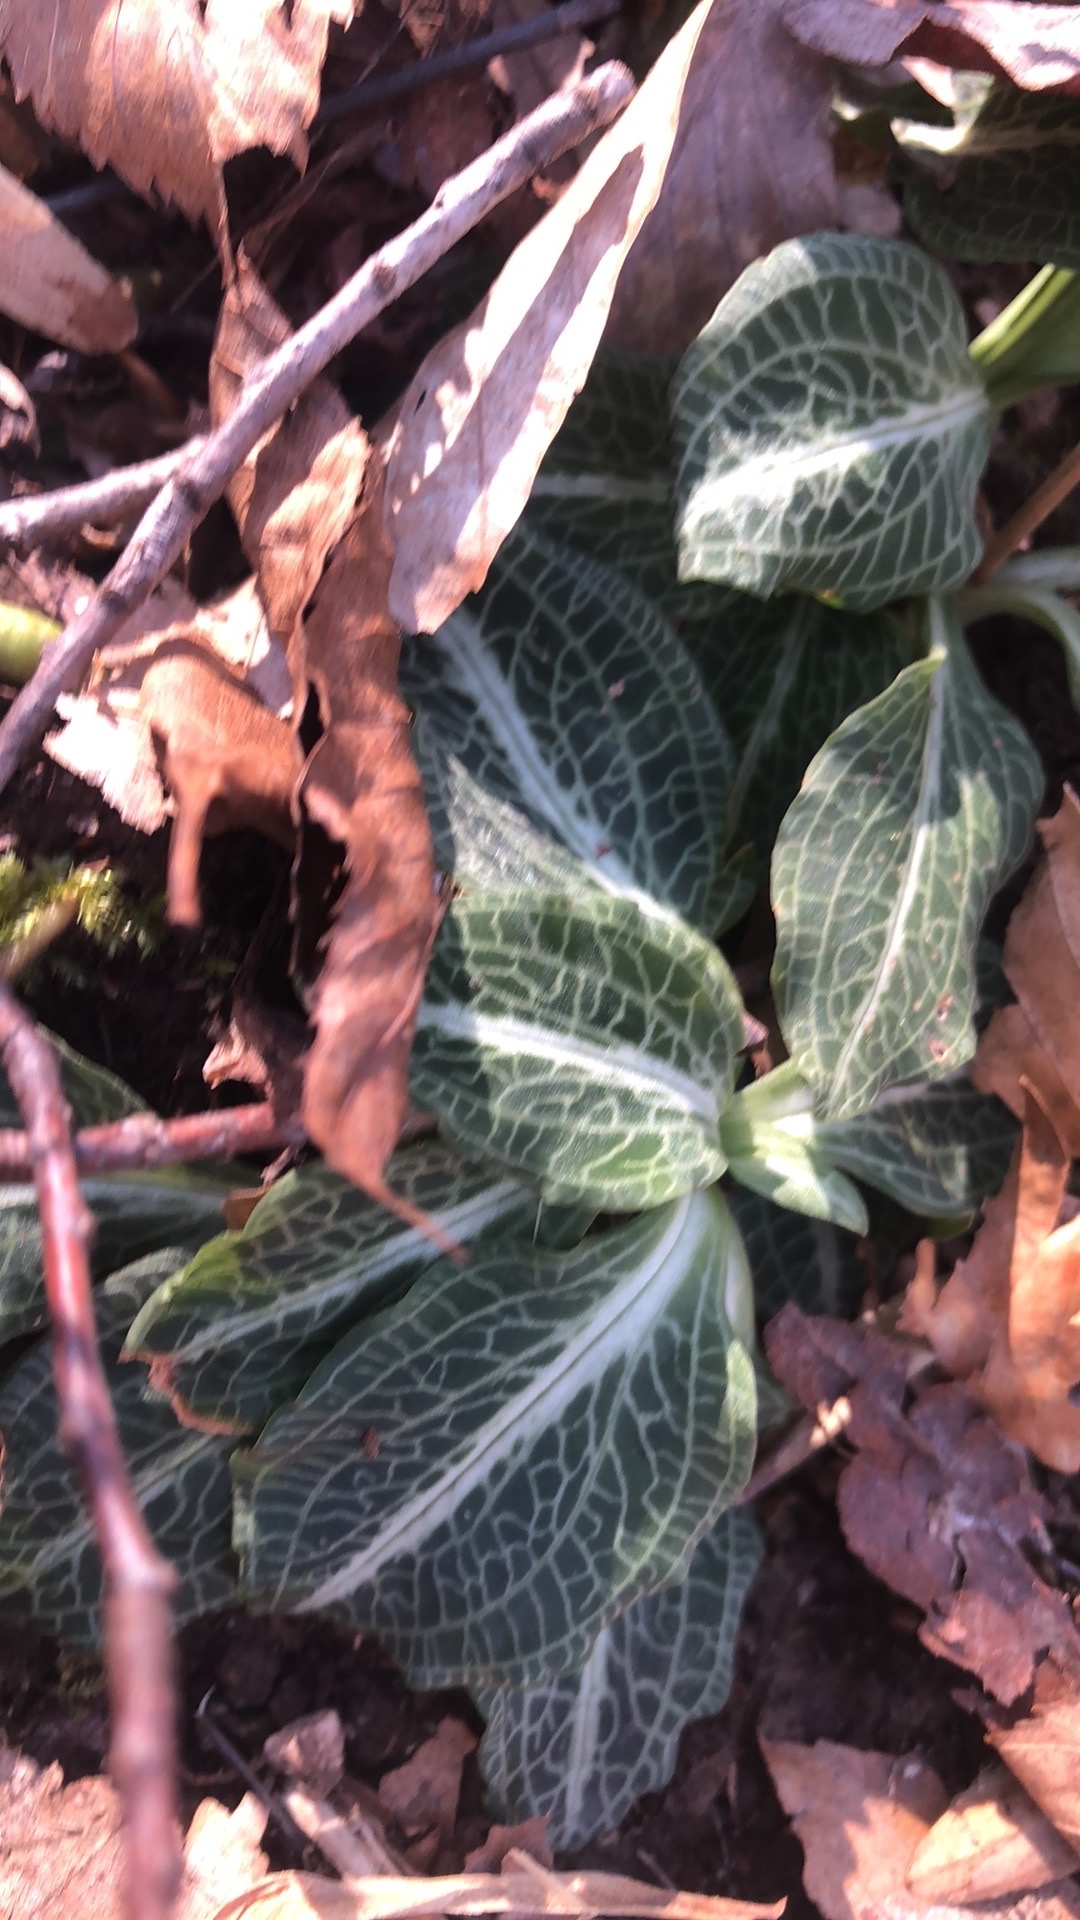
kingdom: Plantae
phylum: Tracheophyta
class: Liliopsida
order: Asparagales
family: Orchidaceae
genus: Goodyera
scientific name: Goodyera pubescens
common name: Downy rattlesnake-plantain
